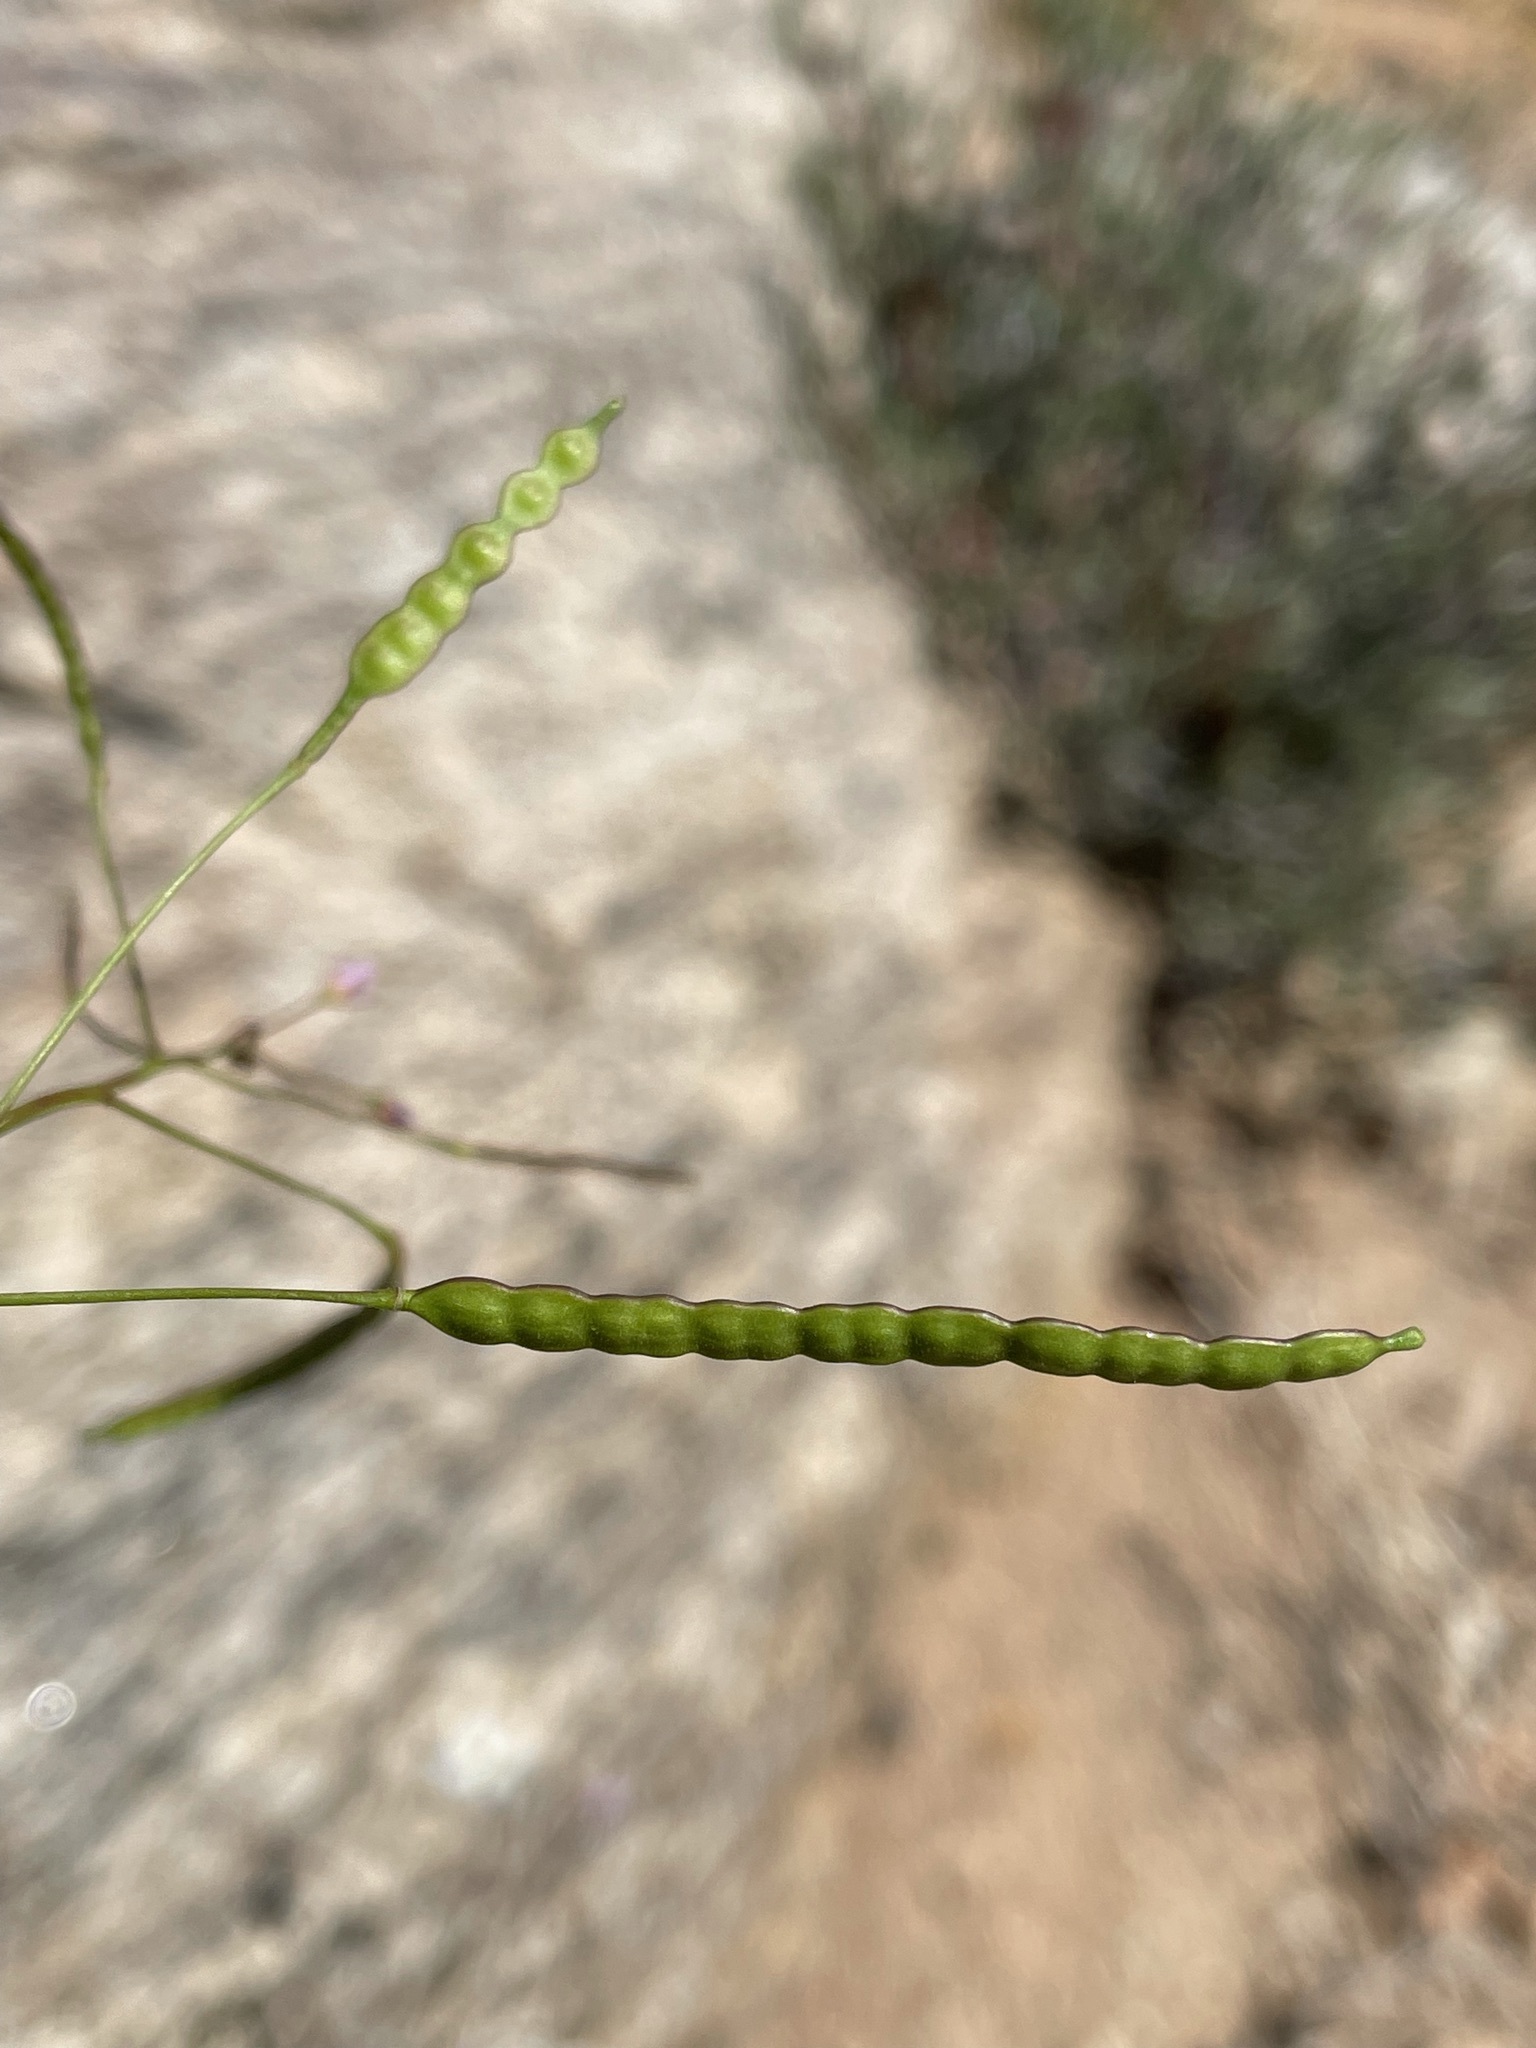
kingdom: Plantae
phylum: Tracheophyta
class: Magnoliopsida
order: Brassicales
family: Brassicaceae
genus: Heliophila
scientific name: Heliophila variabilis
